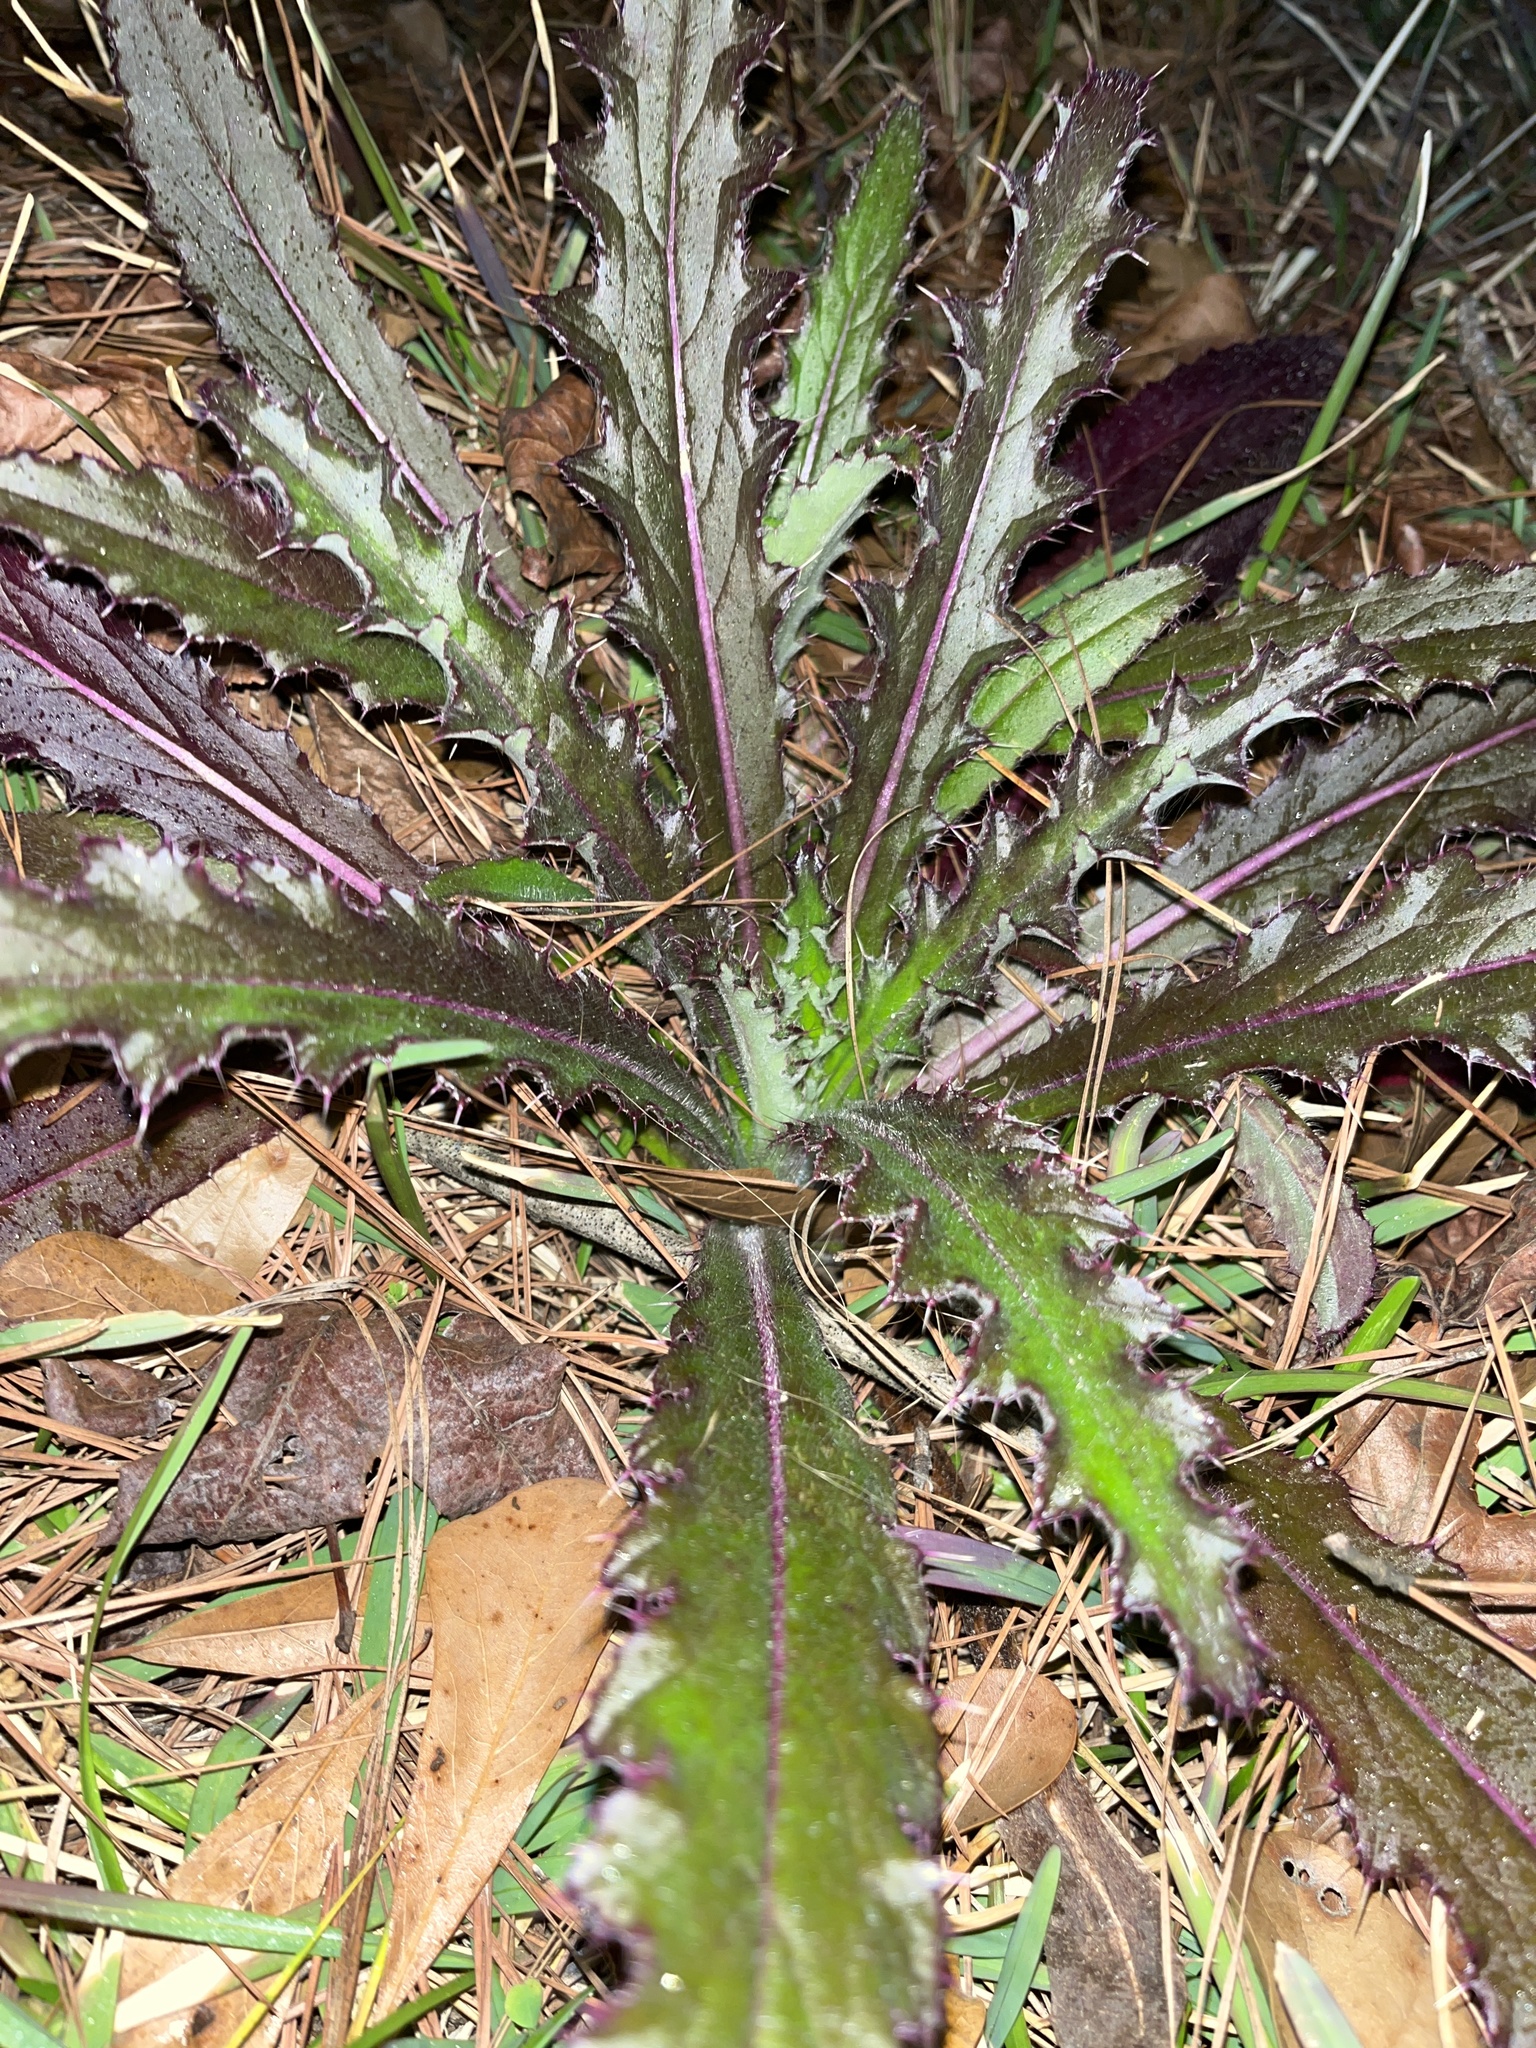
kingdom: Plantae
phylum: Tracheophyta
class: Magnoliopsida
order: Asterales
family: Asteraceae
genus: Cirsium
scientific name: Cirsium horridulum
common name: Bristly thistle
